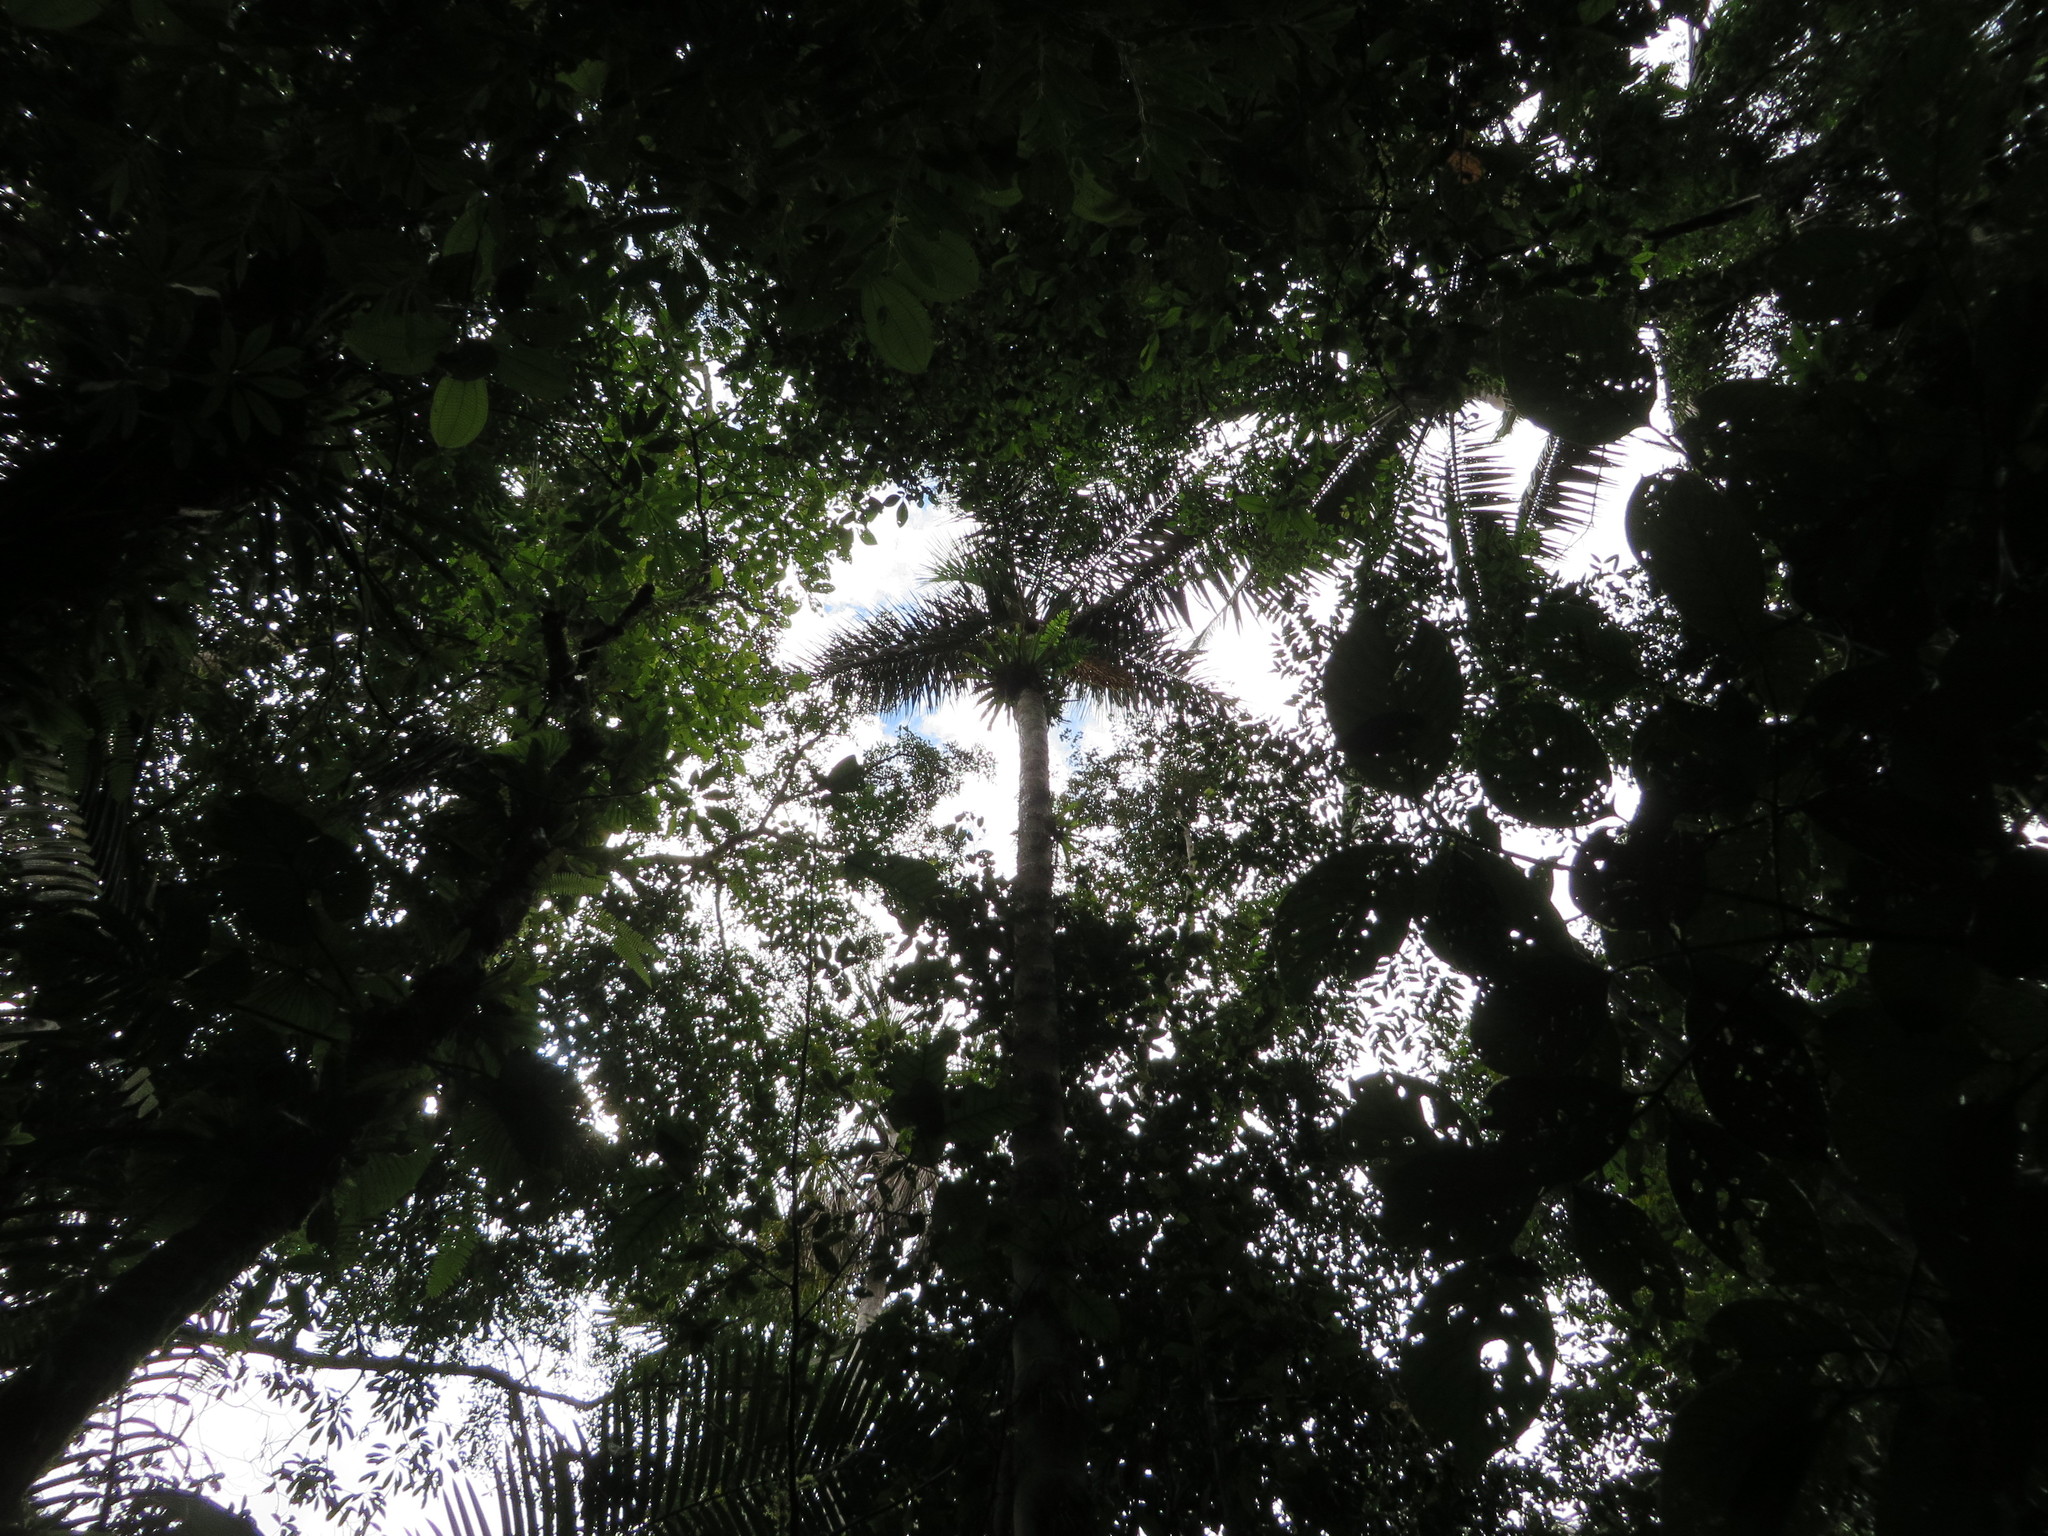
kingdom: Plantae
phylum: Tracheophyta
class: Liliopsida
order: Arecales
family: Arecaceae
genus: Astrocaryum
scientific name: Astrocaryum chambira
